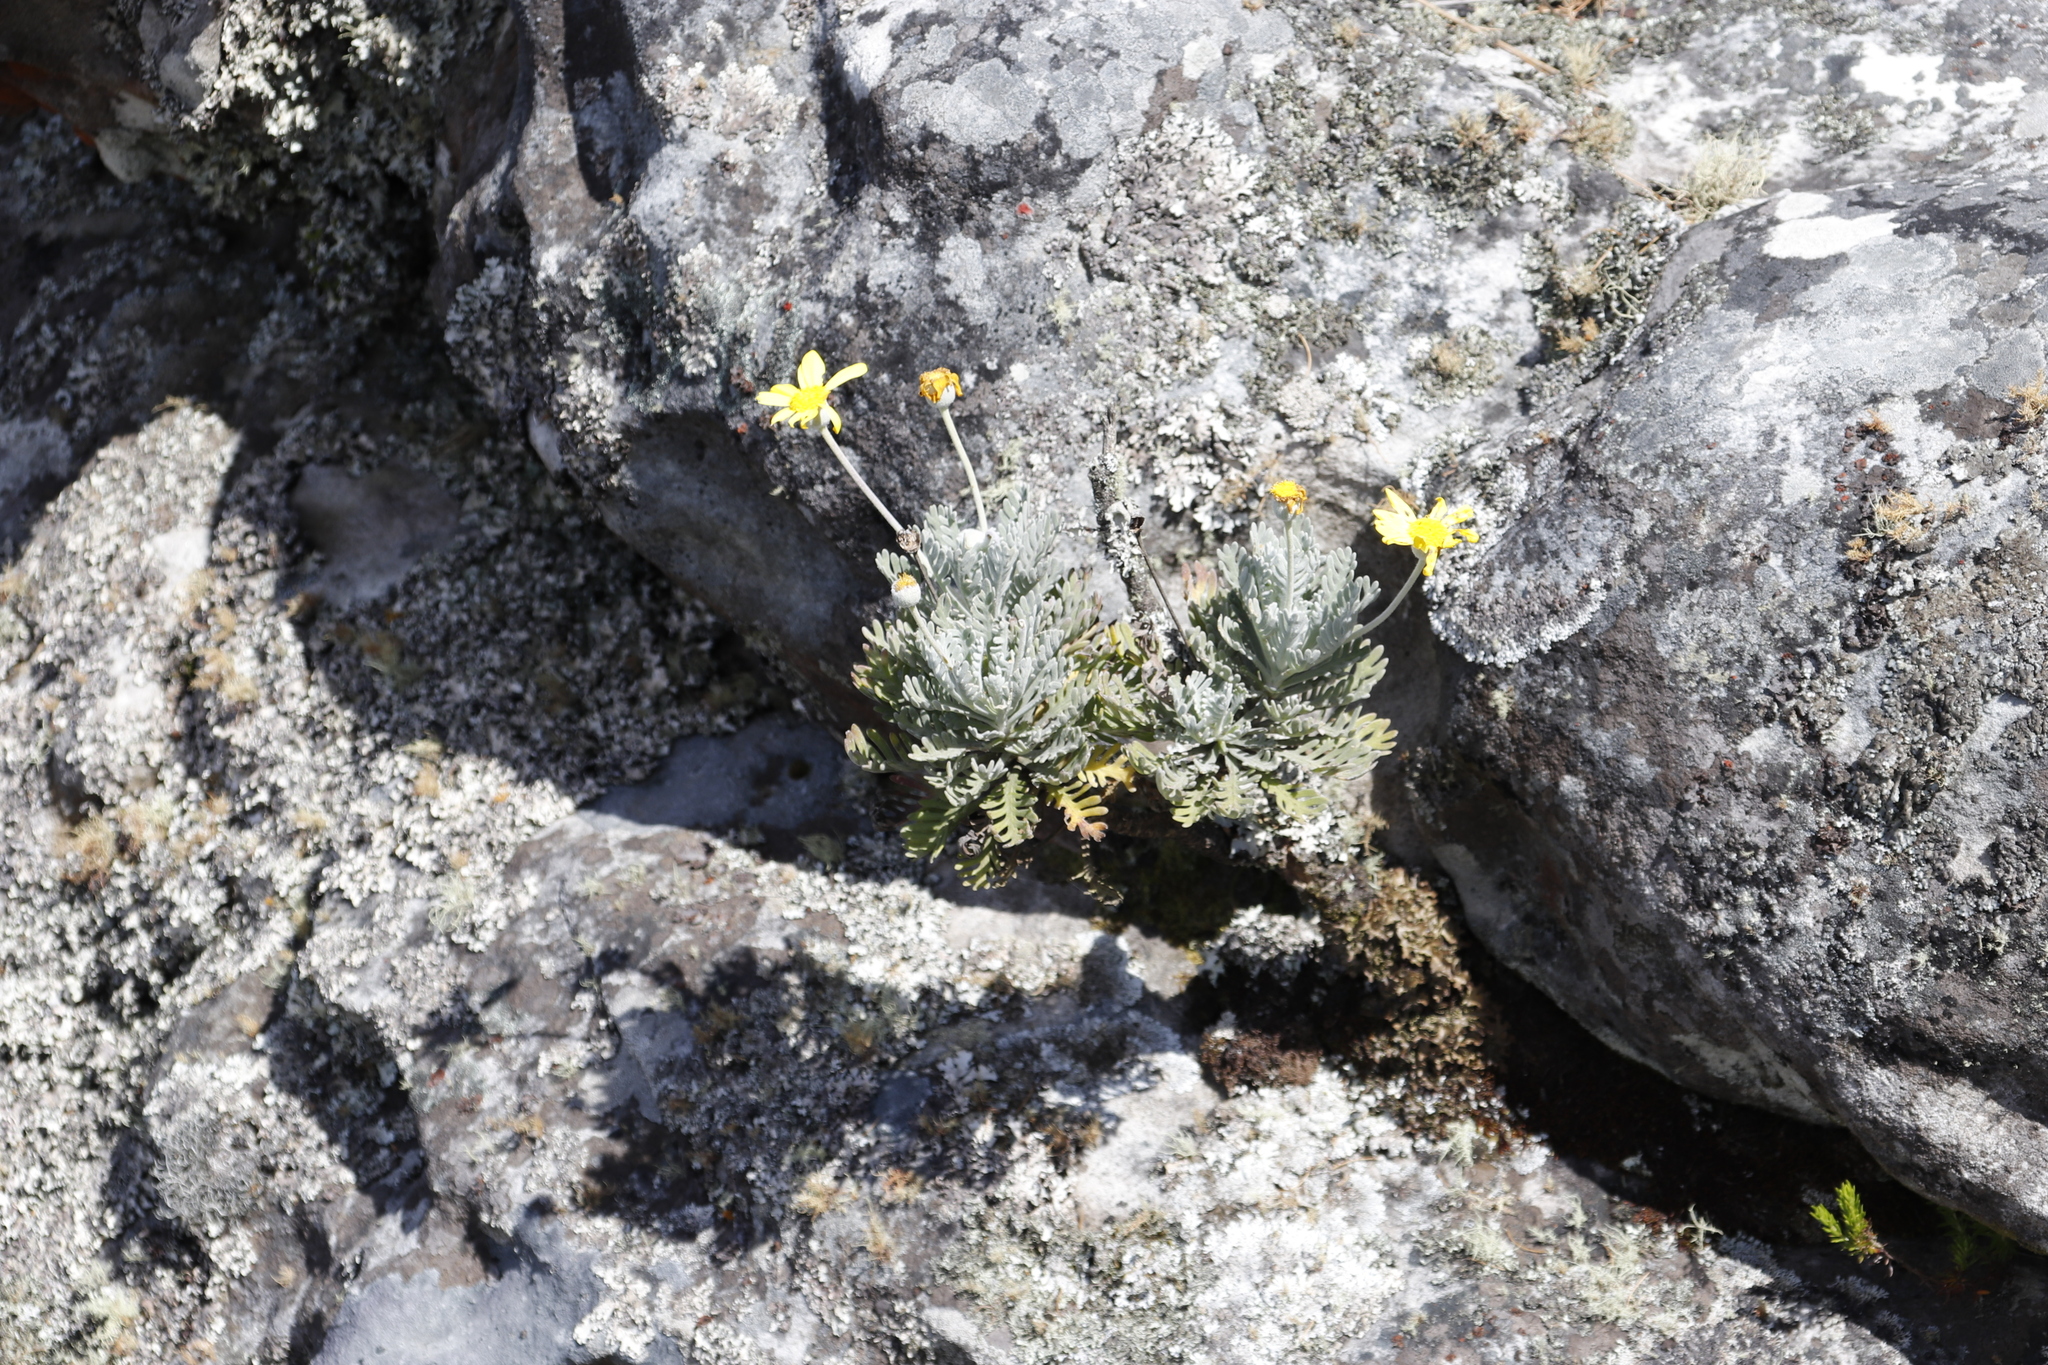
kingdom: Plantae
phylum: Tracheophyta
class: Magnoliopsida
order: Asterales
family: Asteraceae
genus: Euryops
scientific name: Euryops pectinatus
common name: Gray-leaf euryops
